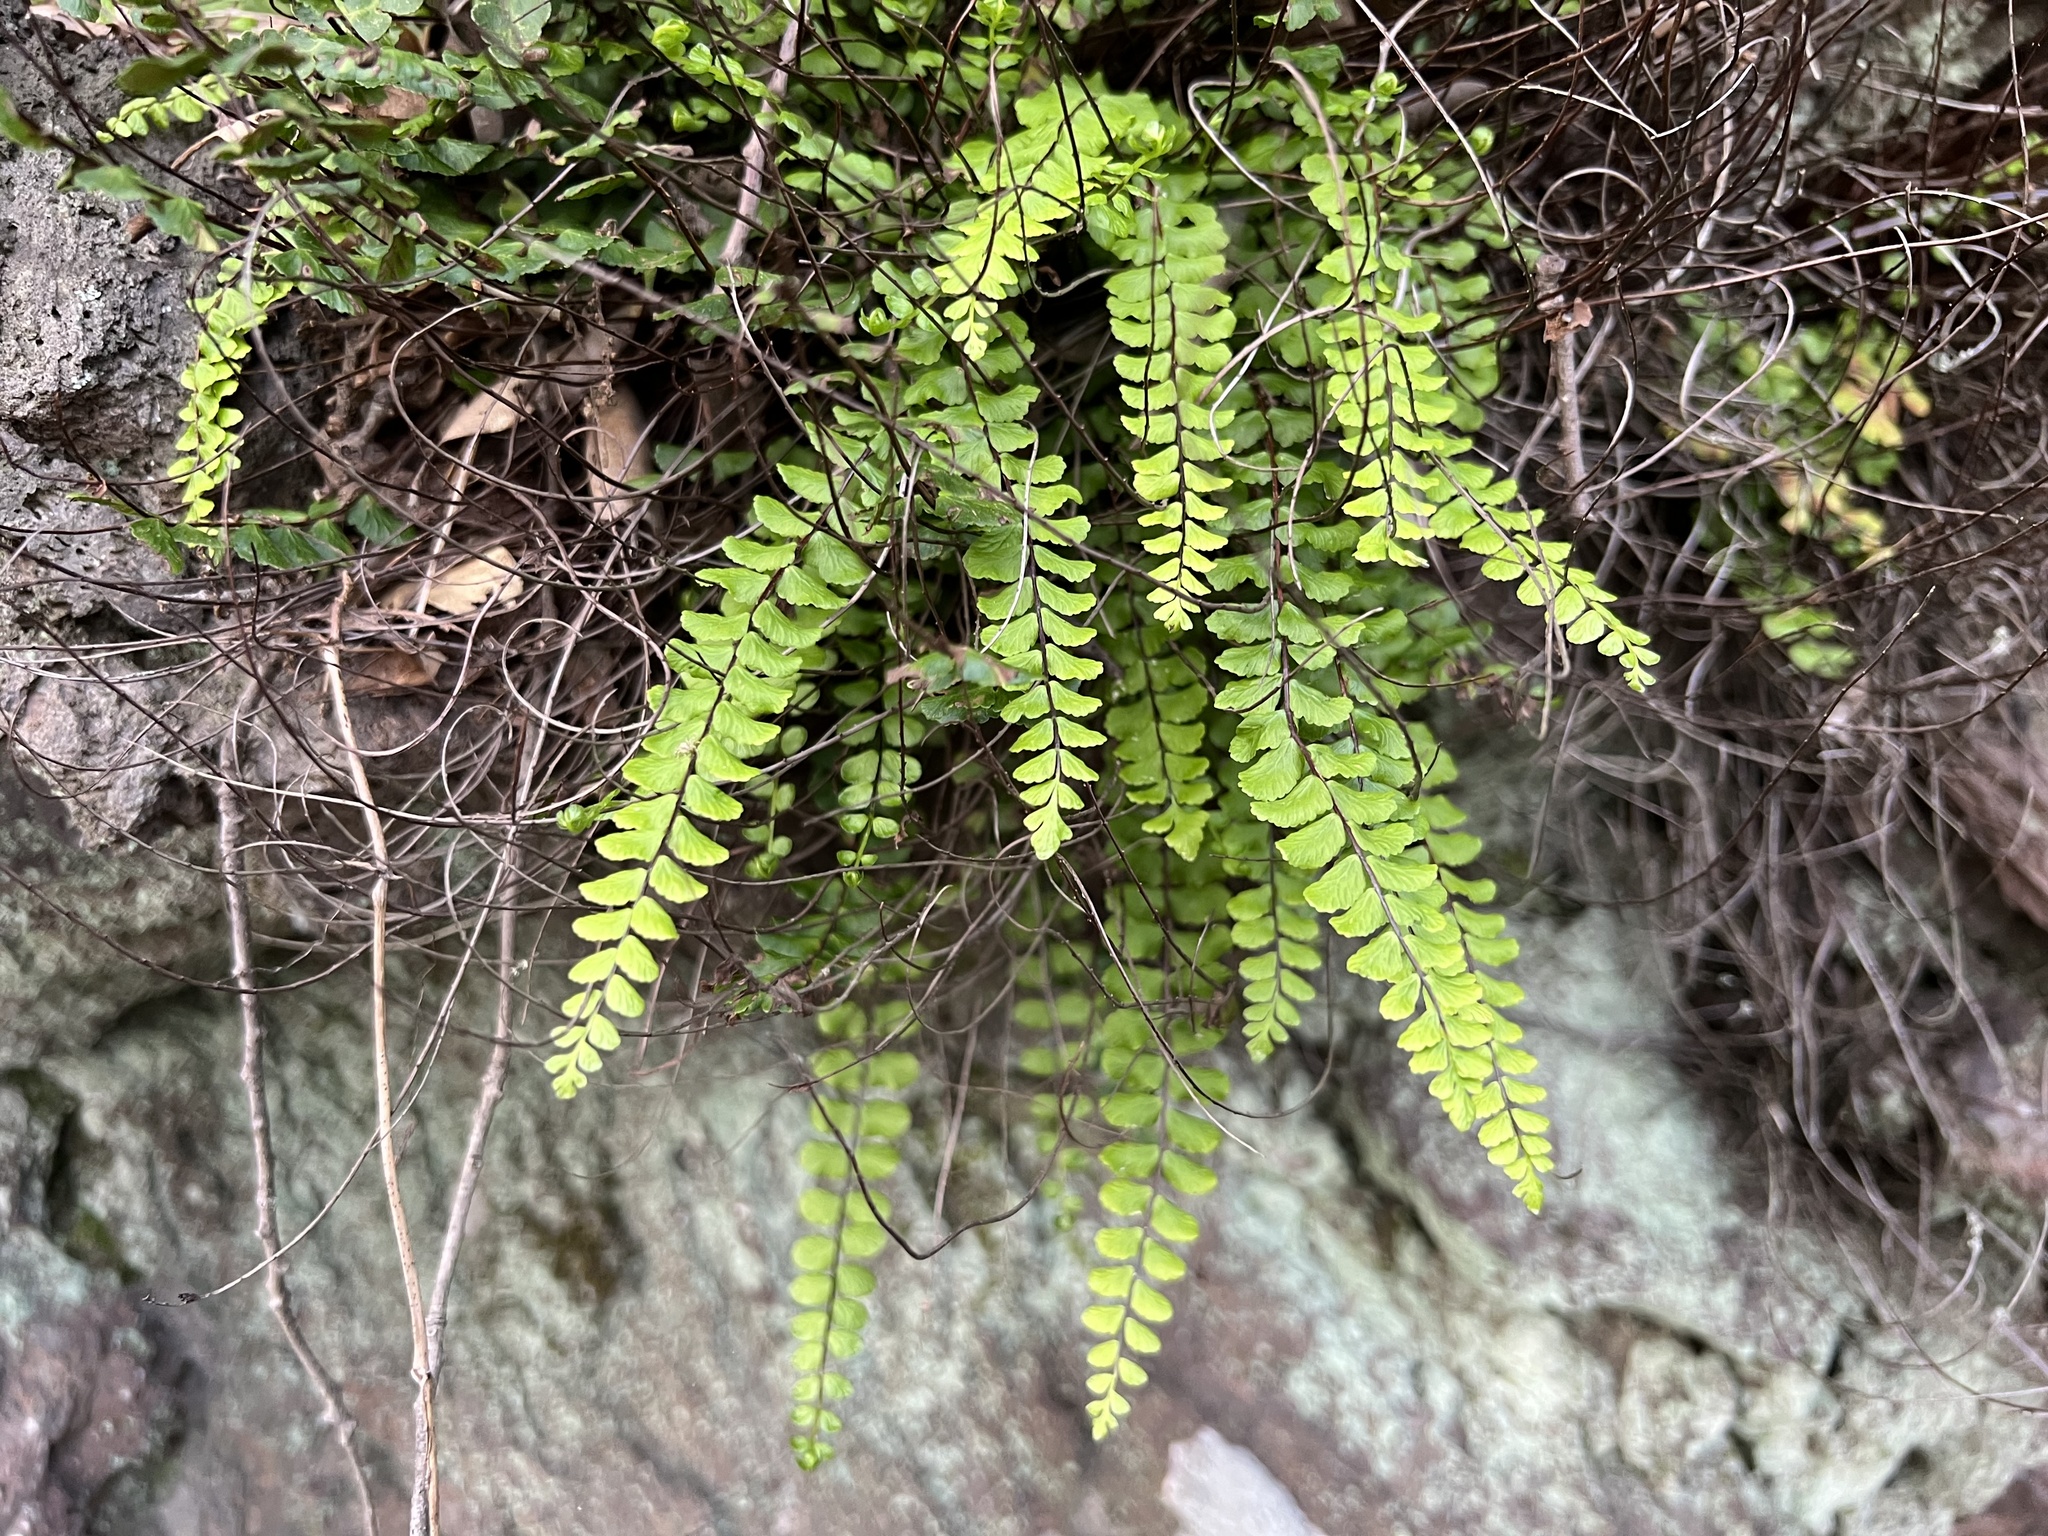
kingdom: Plantae
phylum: Tracheophyta
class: Polypodiopsida
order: Polypodiales
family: Aspleniaceae
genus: Asplenium
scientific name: Asplenium trichomanes
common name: Maidenhair spleenwort
